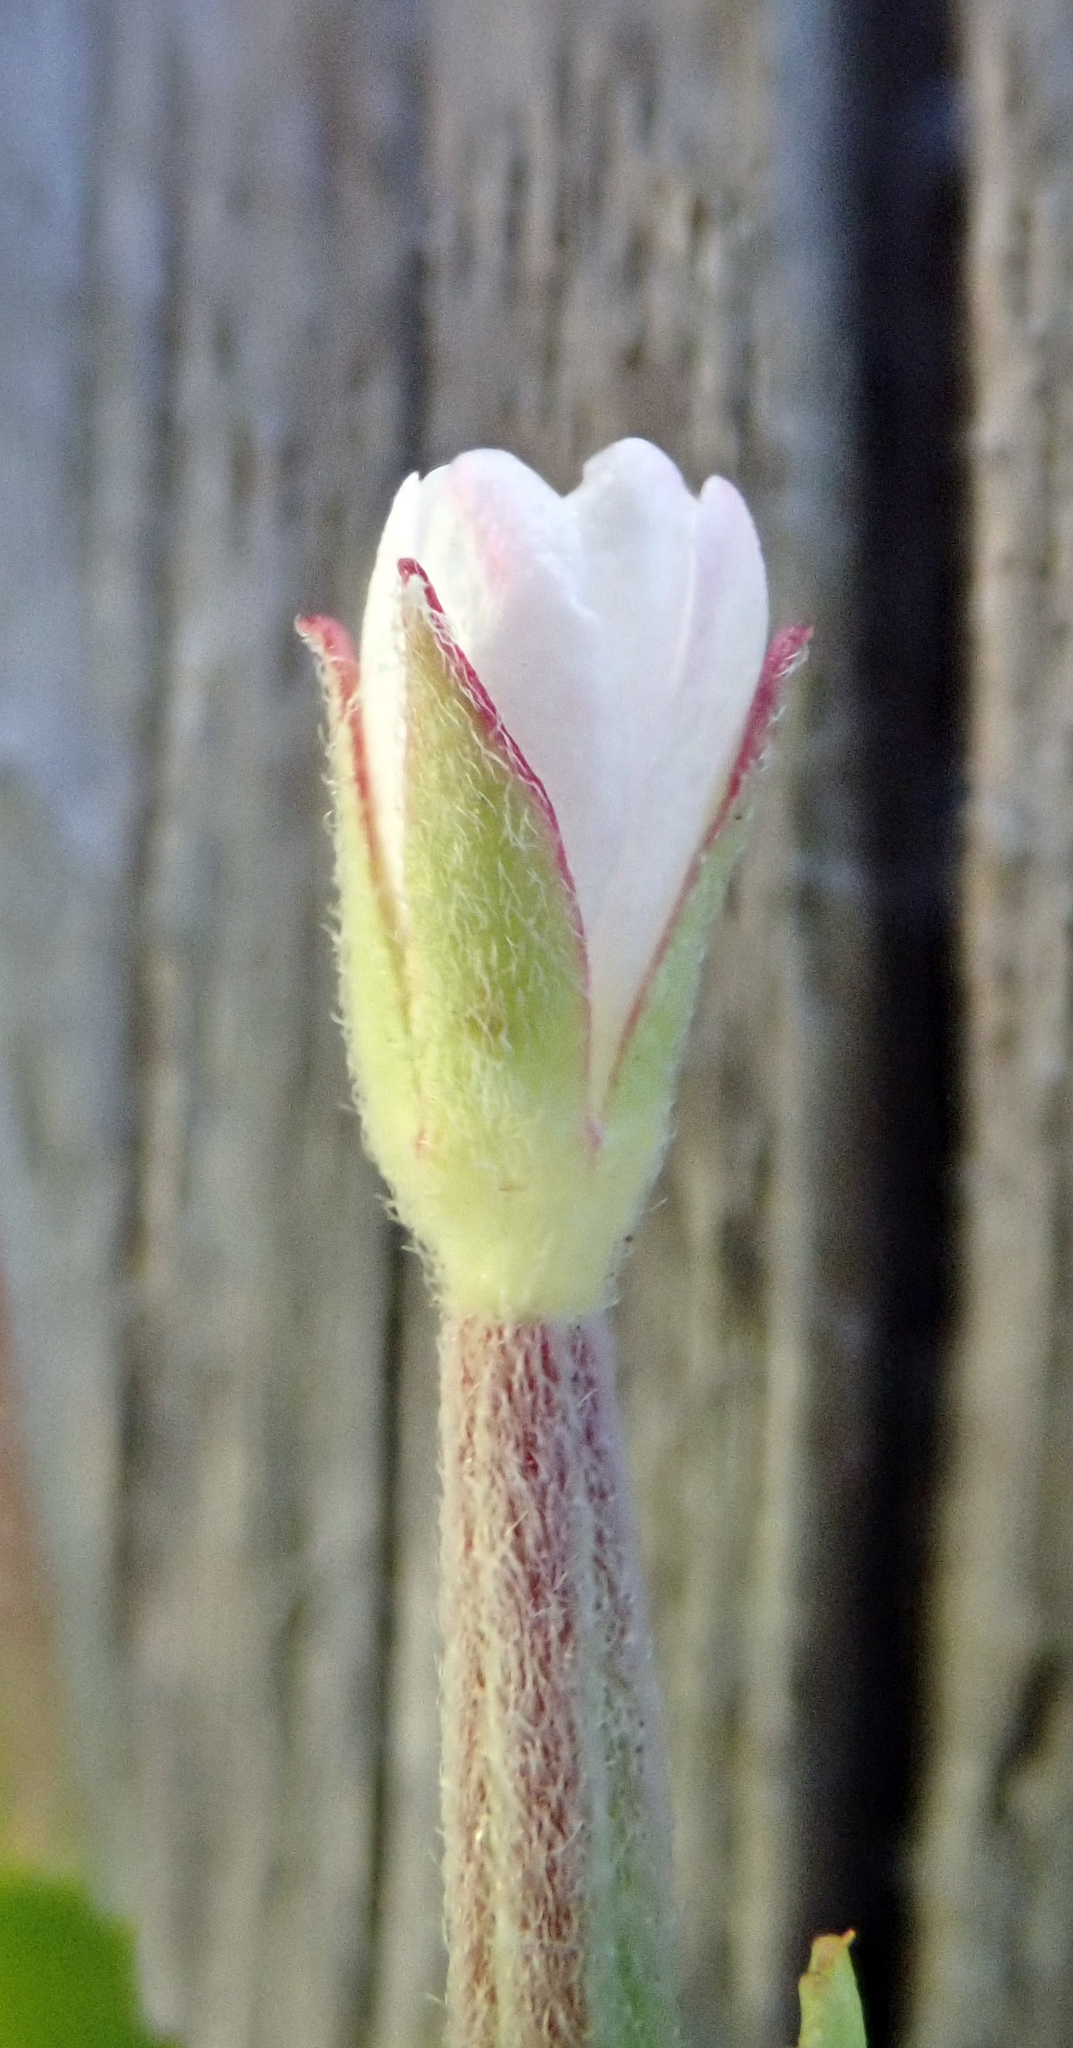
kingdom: Plantae
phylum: Tracheophyta
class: Magnoliopsida
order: Myrtales
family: Onagraceae
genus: Epilobium
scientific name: Epilobium billardiereanum
